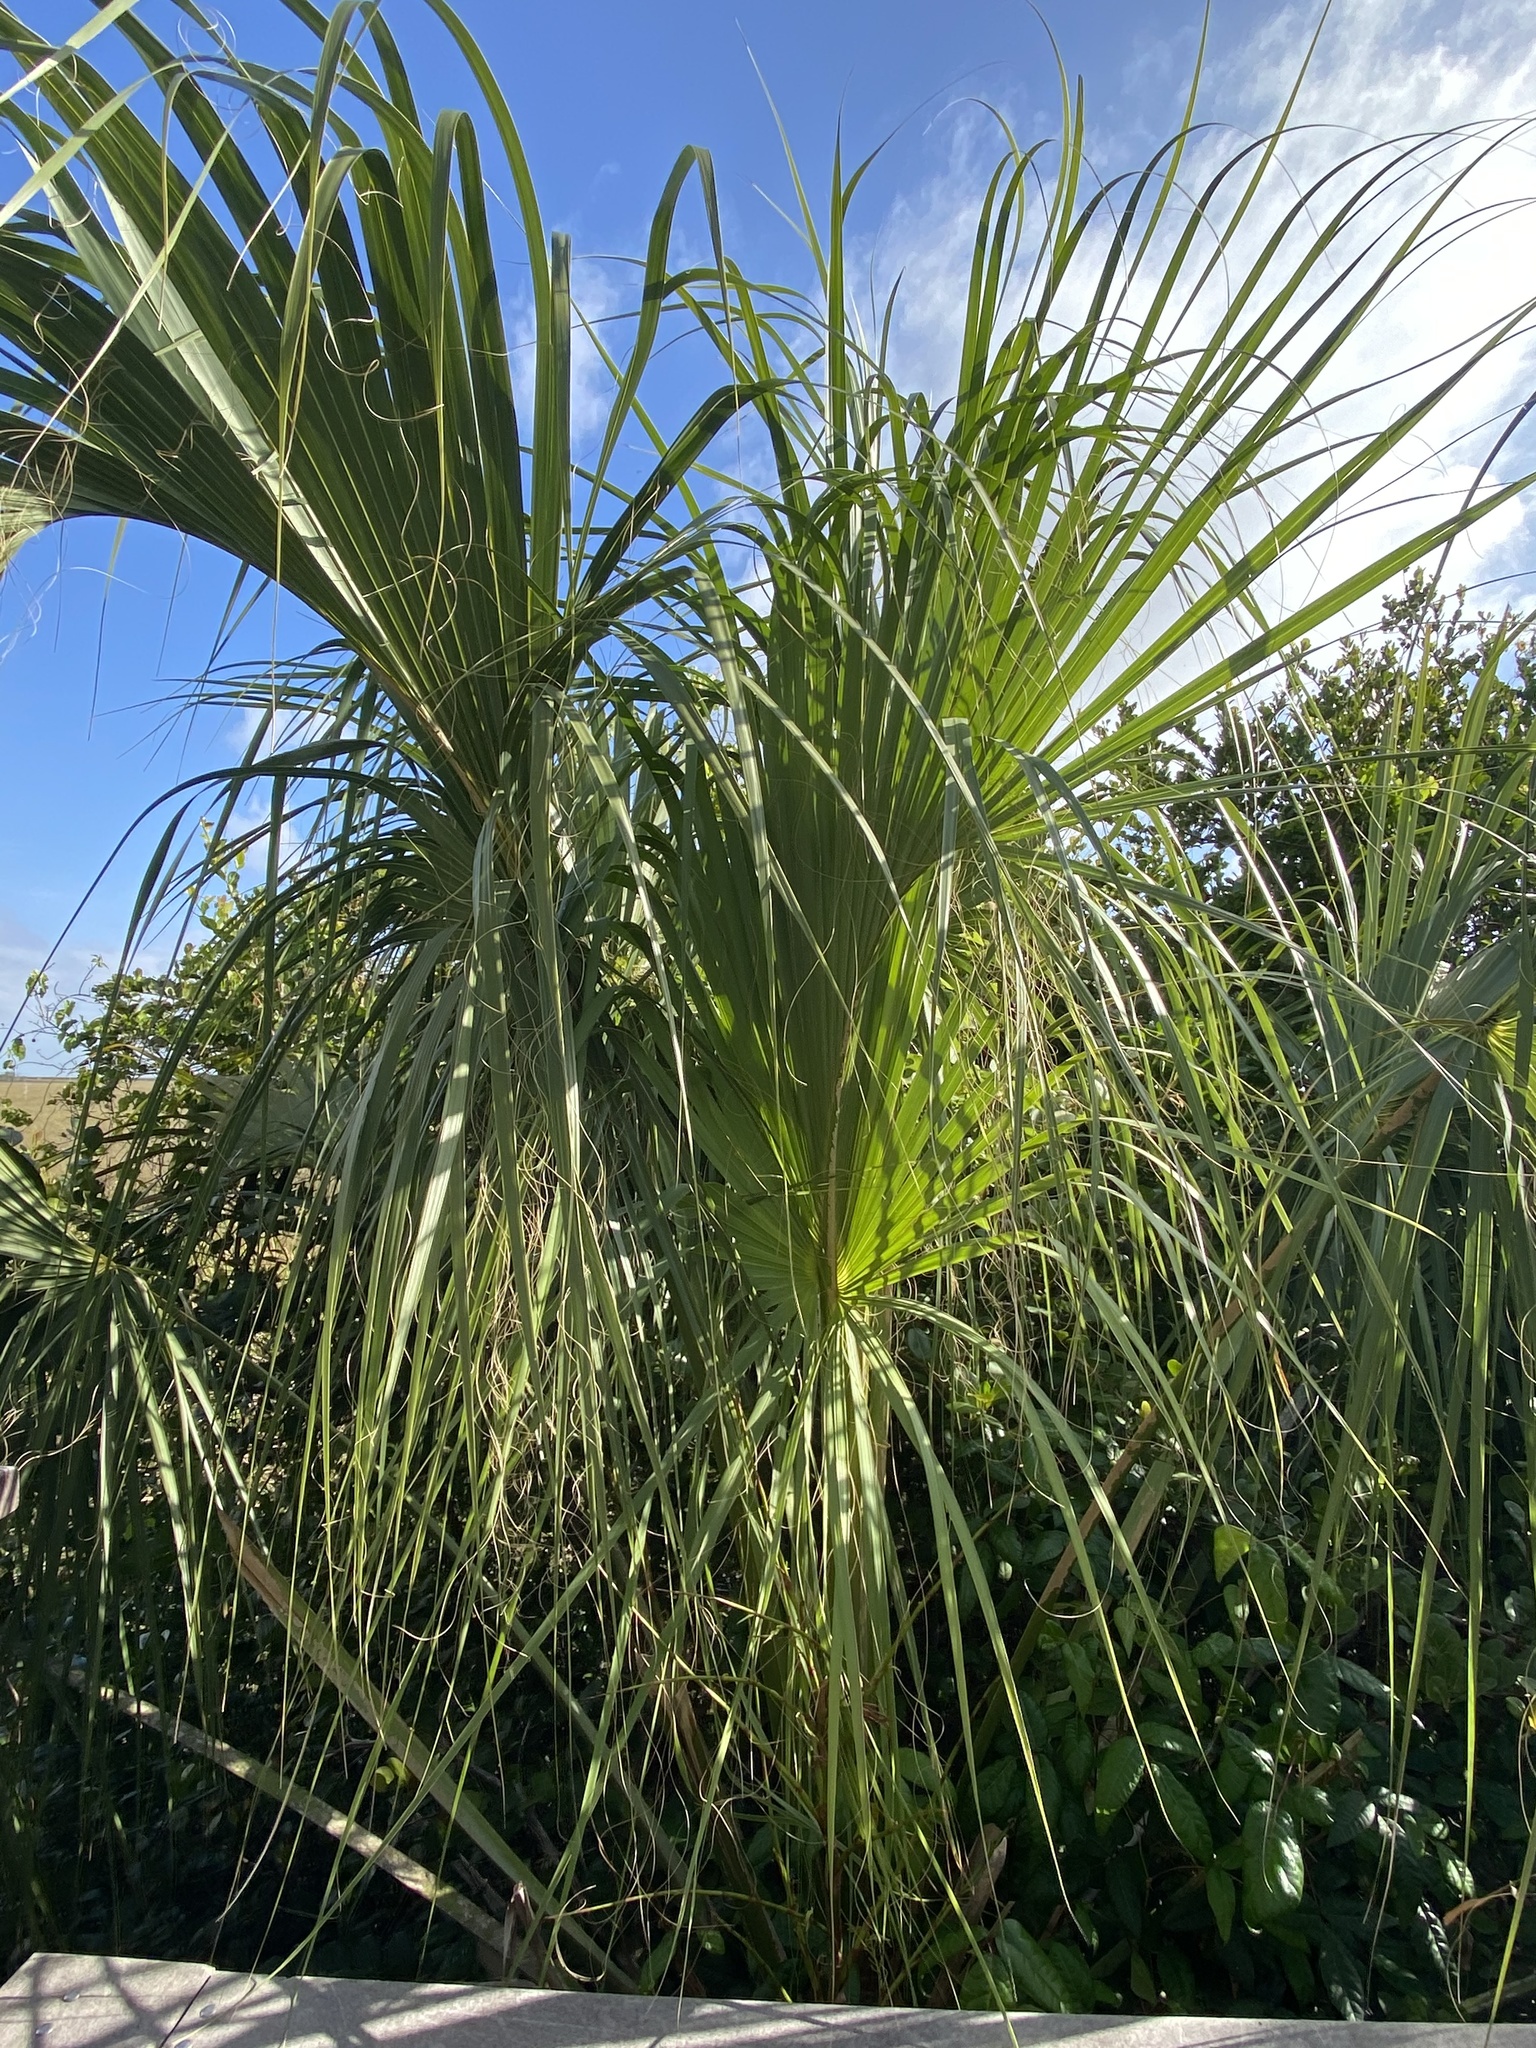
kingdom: Plantae
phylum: Tracheophyta
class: Liliopsida
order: Arecales
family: Arecaceae
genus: Sabal
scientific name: Sabal palmetto
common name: Blue palmetto
